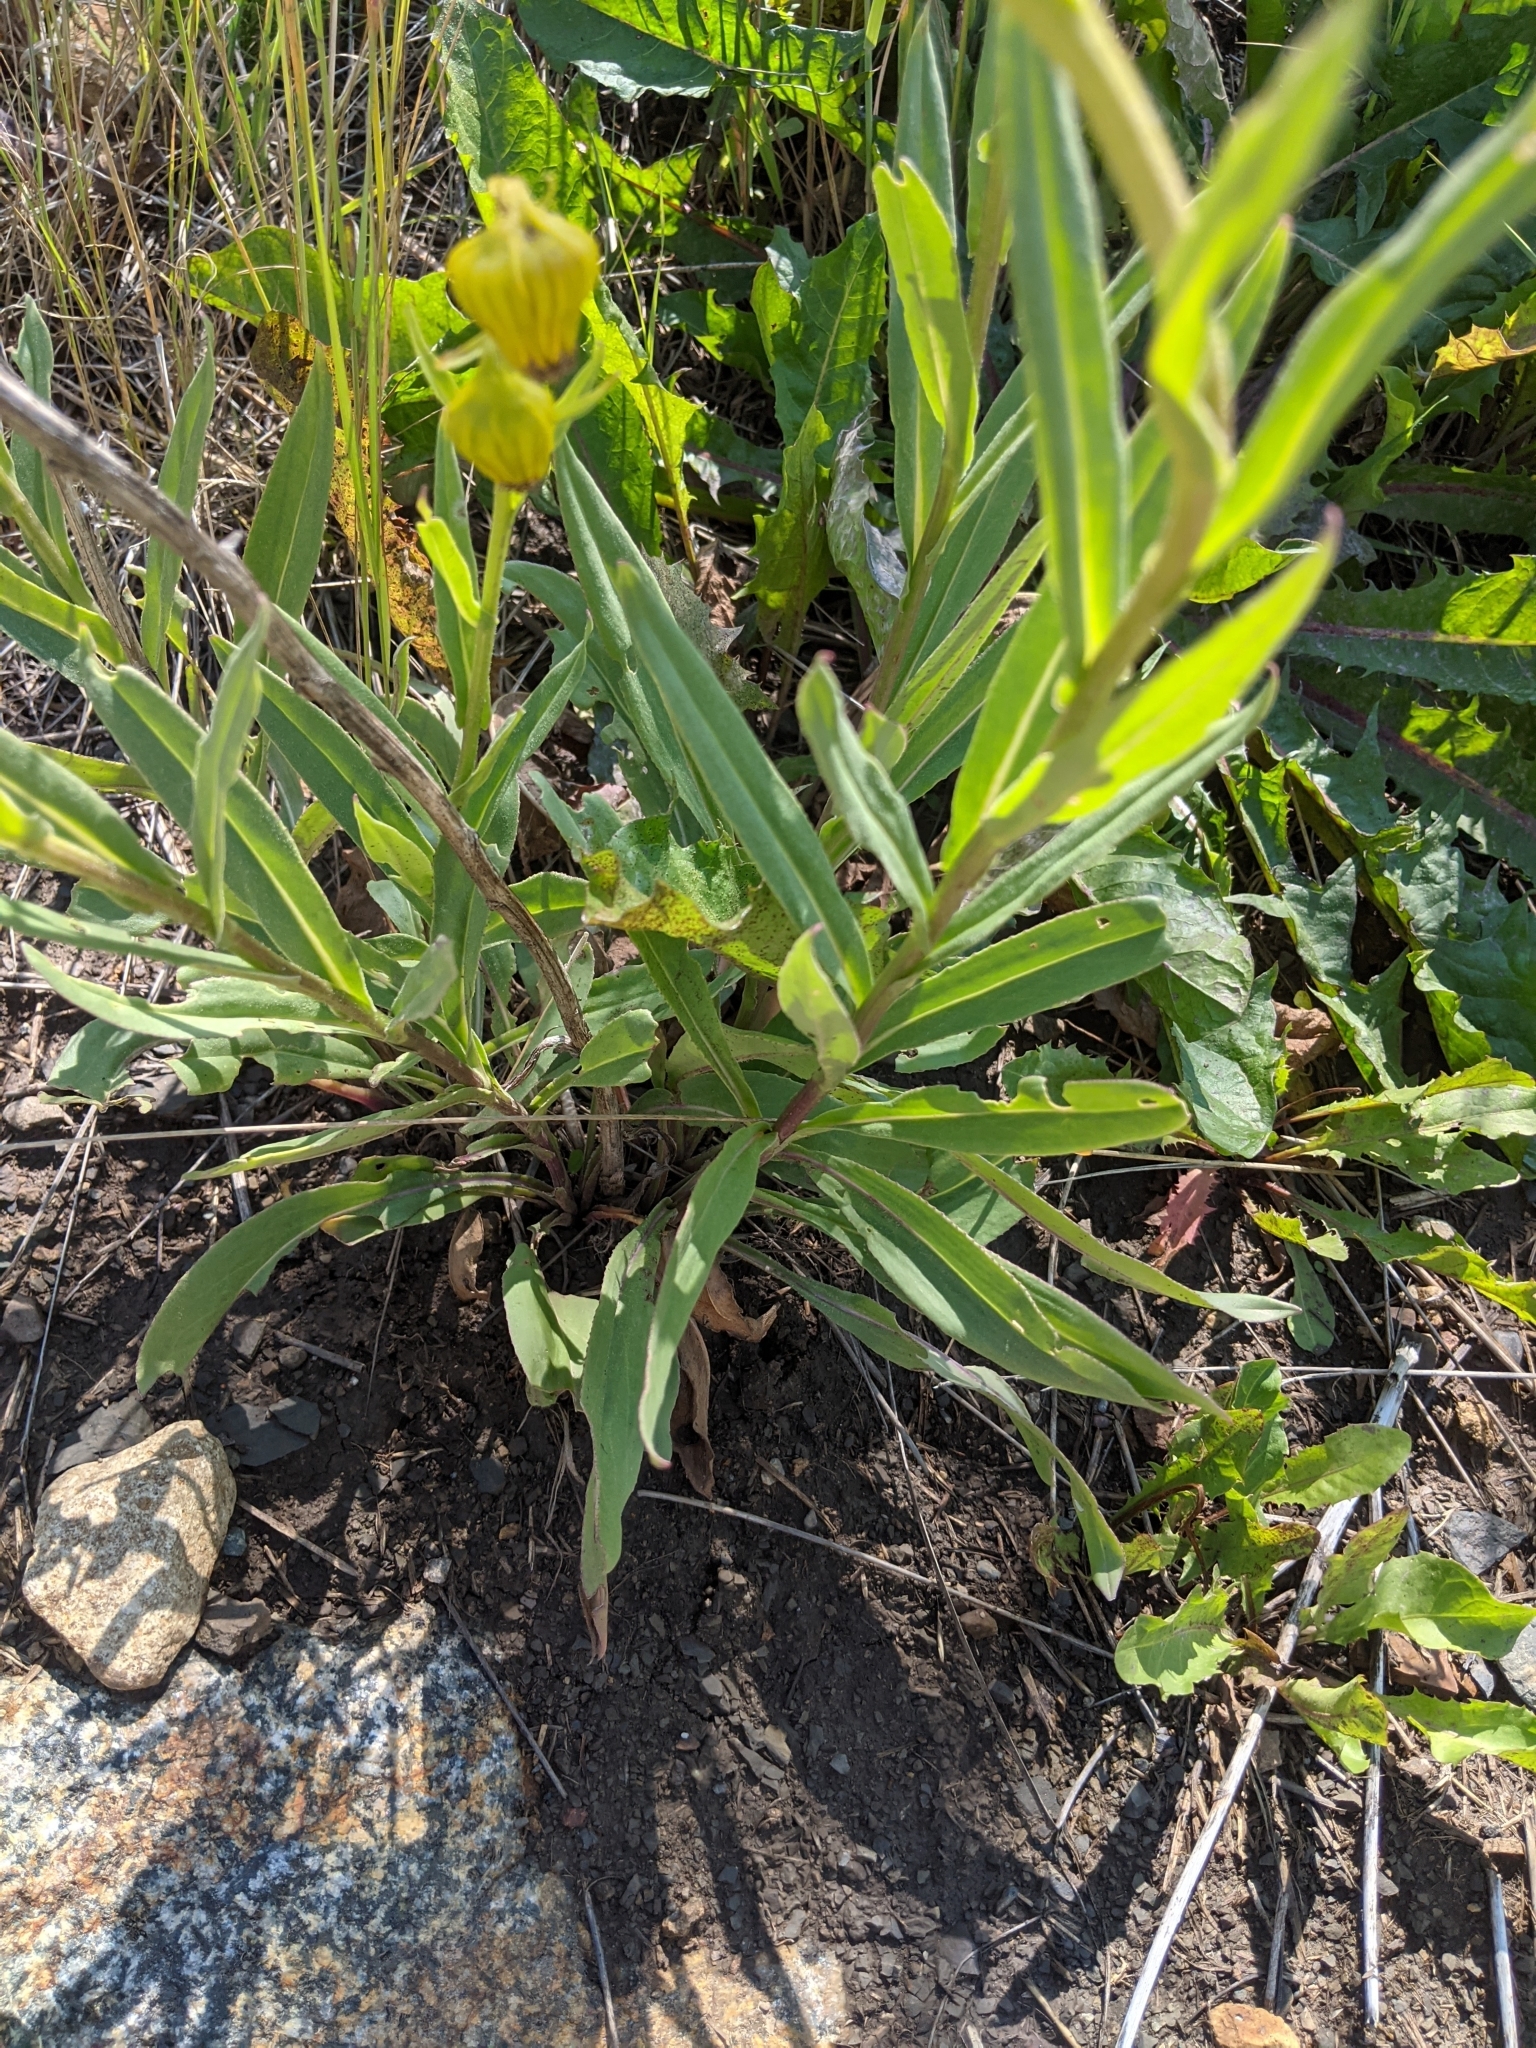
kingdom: Plantae
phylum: Tracheophyta
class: Magnoliopsida
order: Asterales
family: Asteraceae
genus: Senecio
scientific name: Senecio bigelovii
